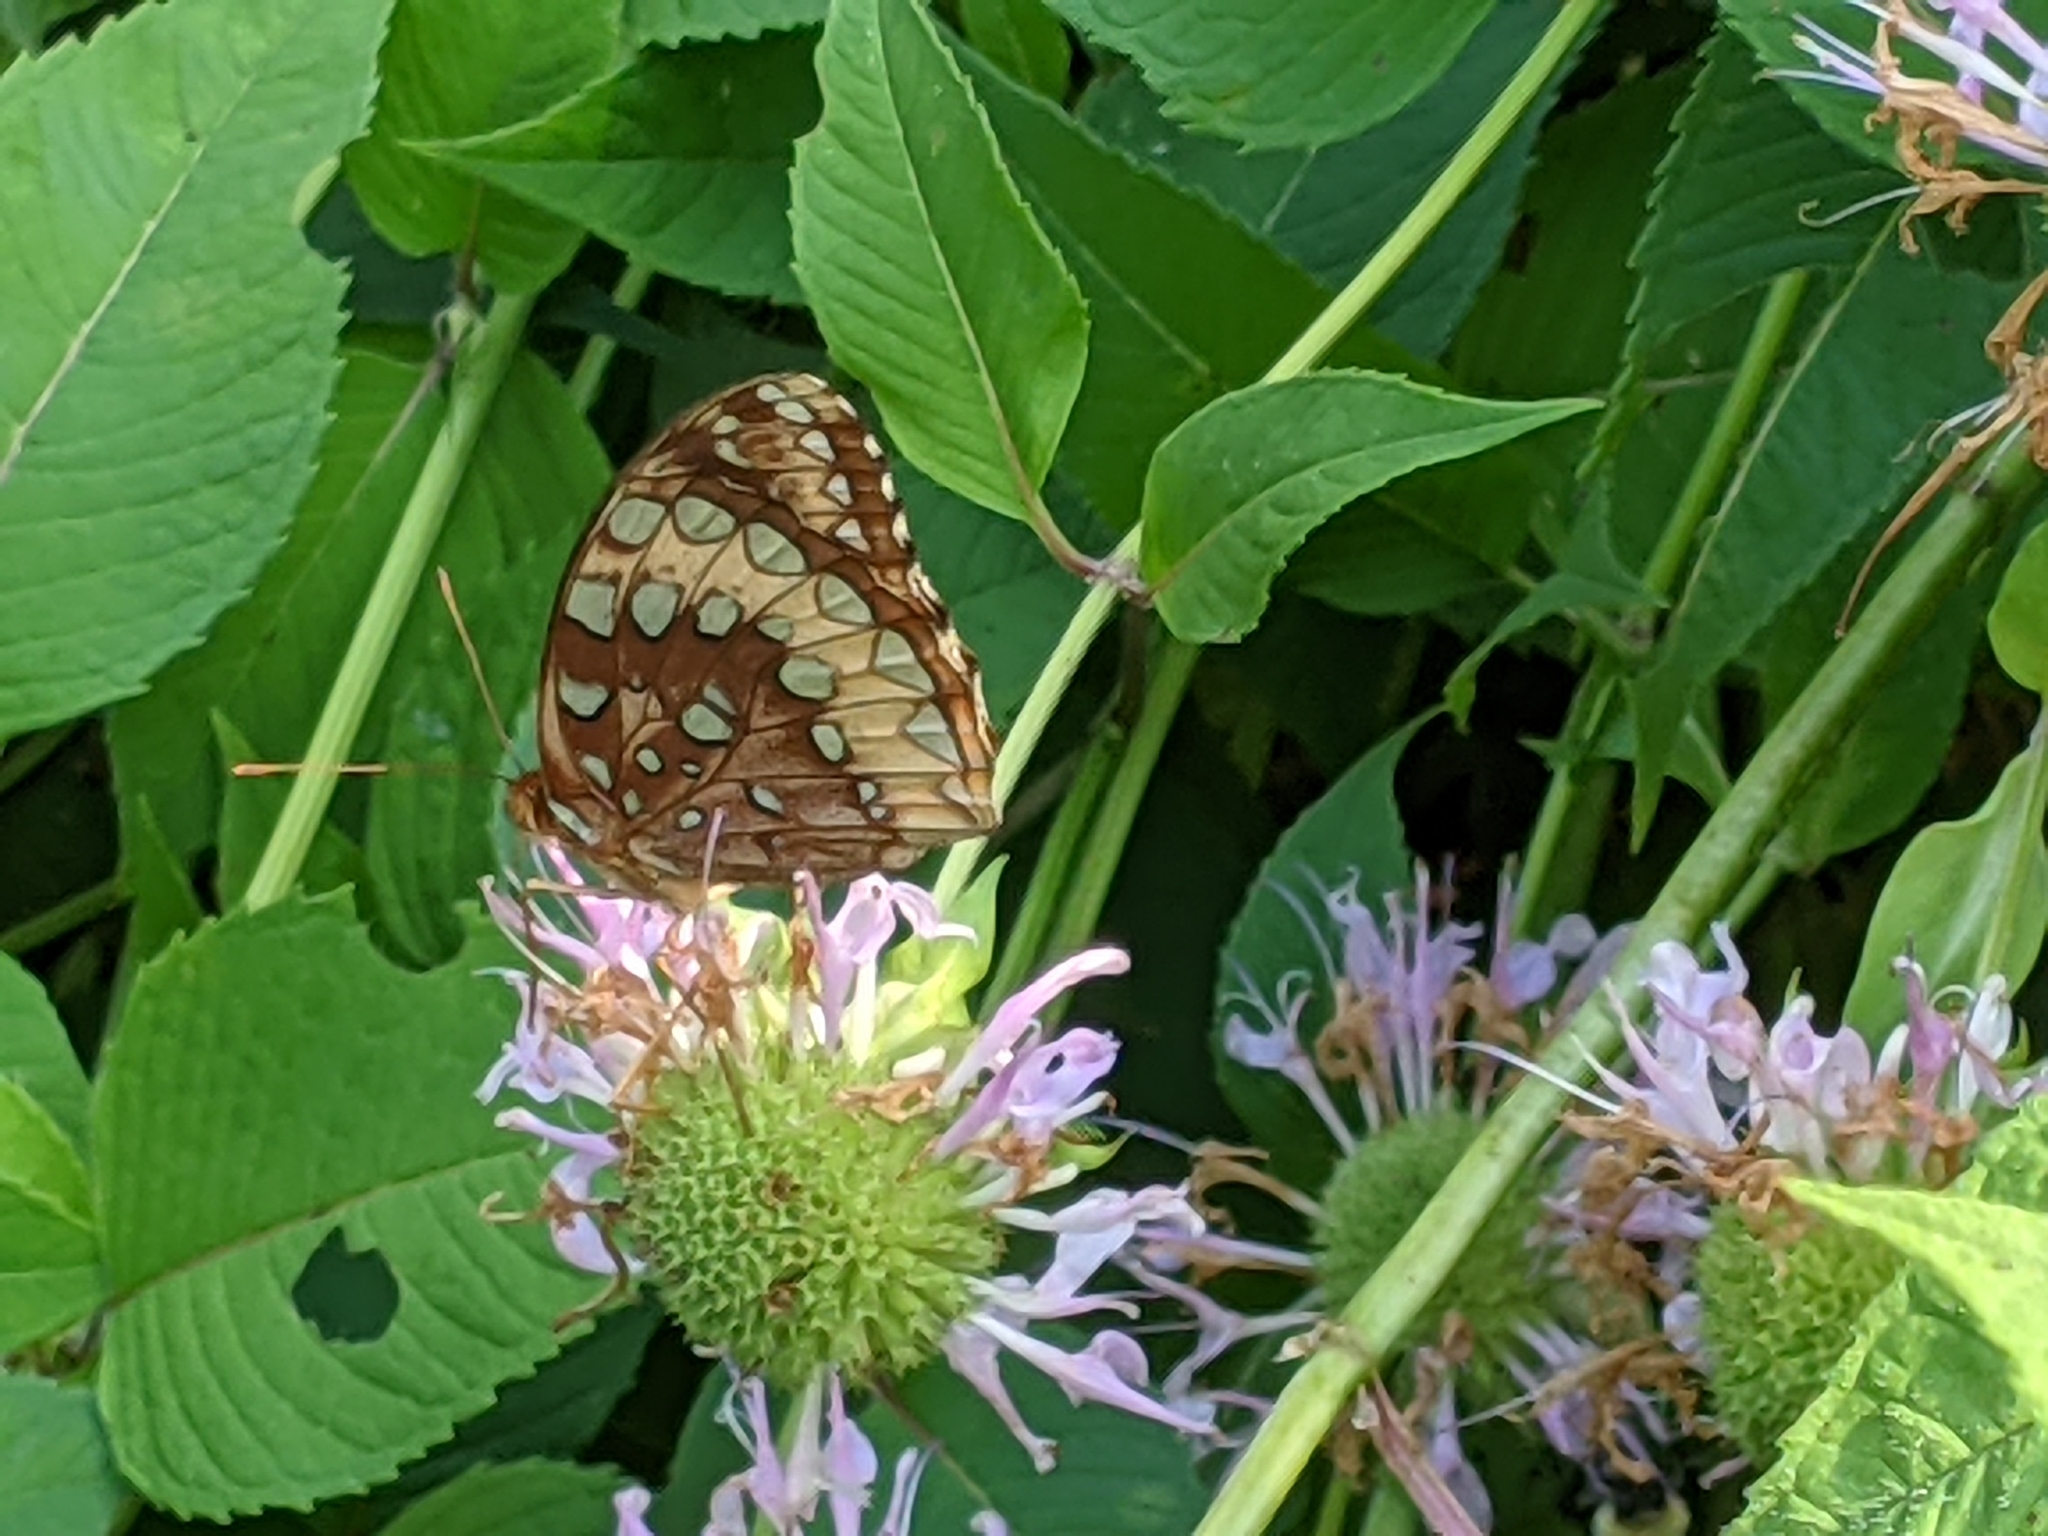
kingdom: Animalia
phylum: Arthropoda
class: Insecta
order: Lepidoptera
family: Nymphalidae
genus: Speyeria
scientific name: Speyeria cybele
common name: Great spangled fritillary
